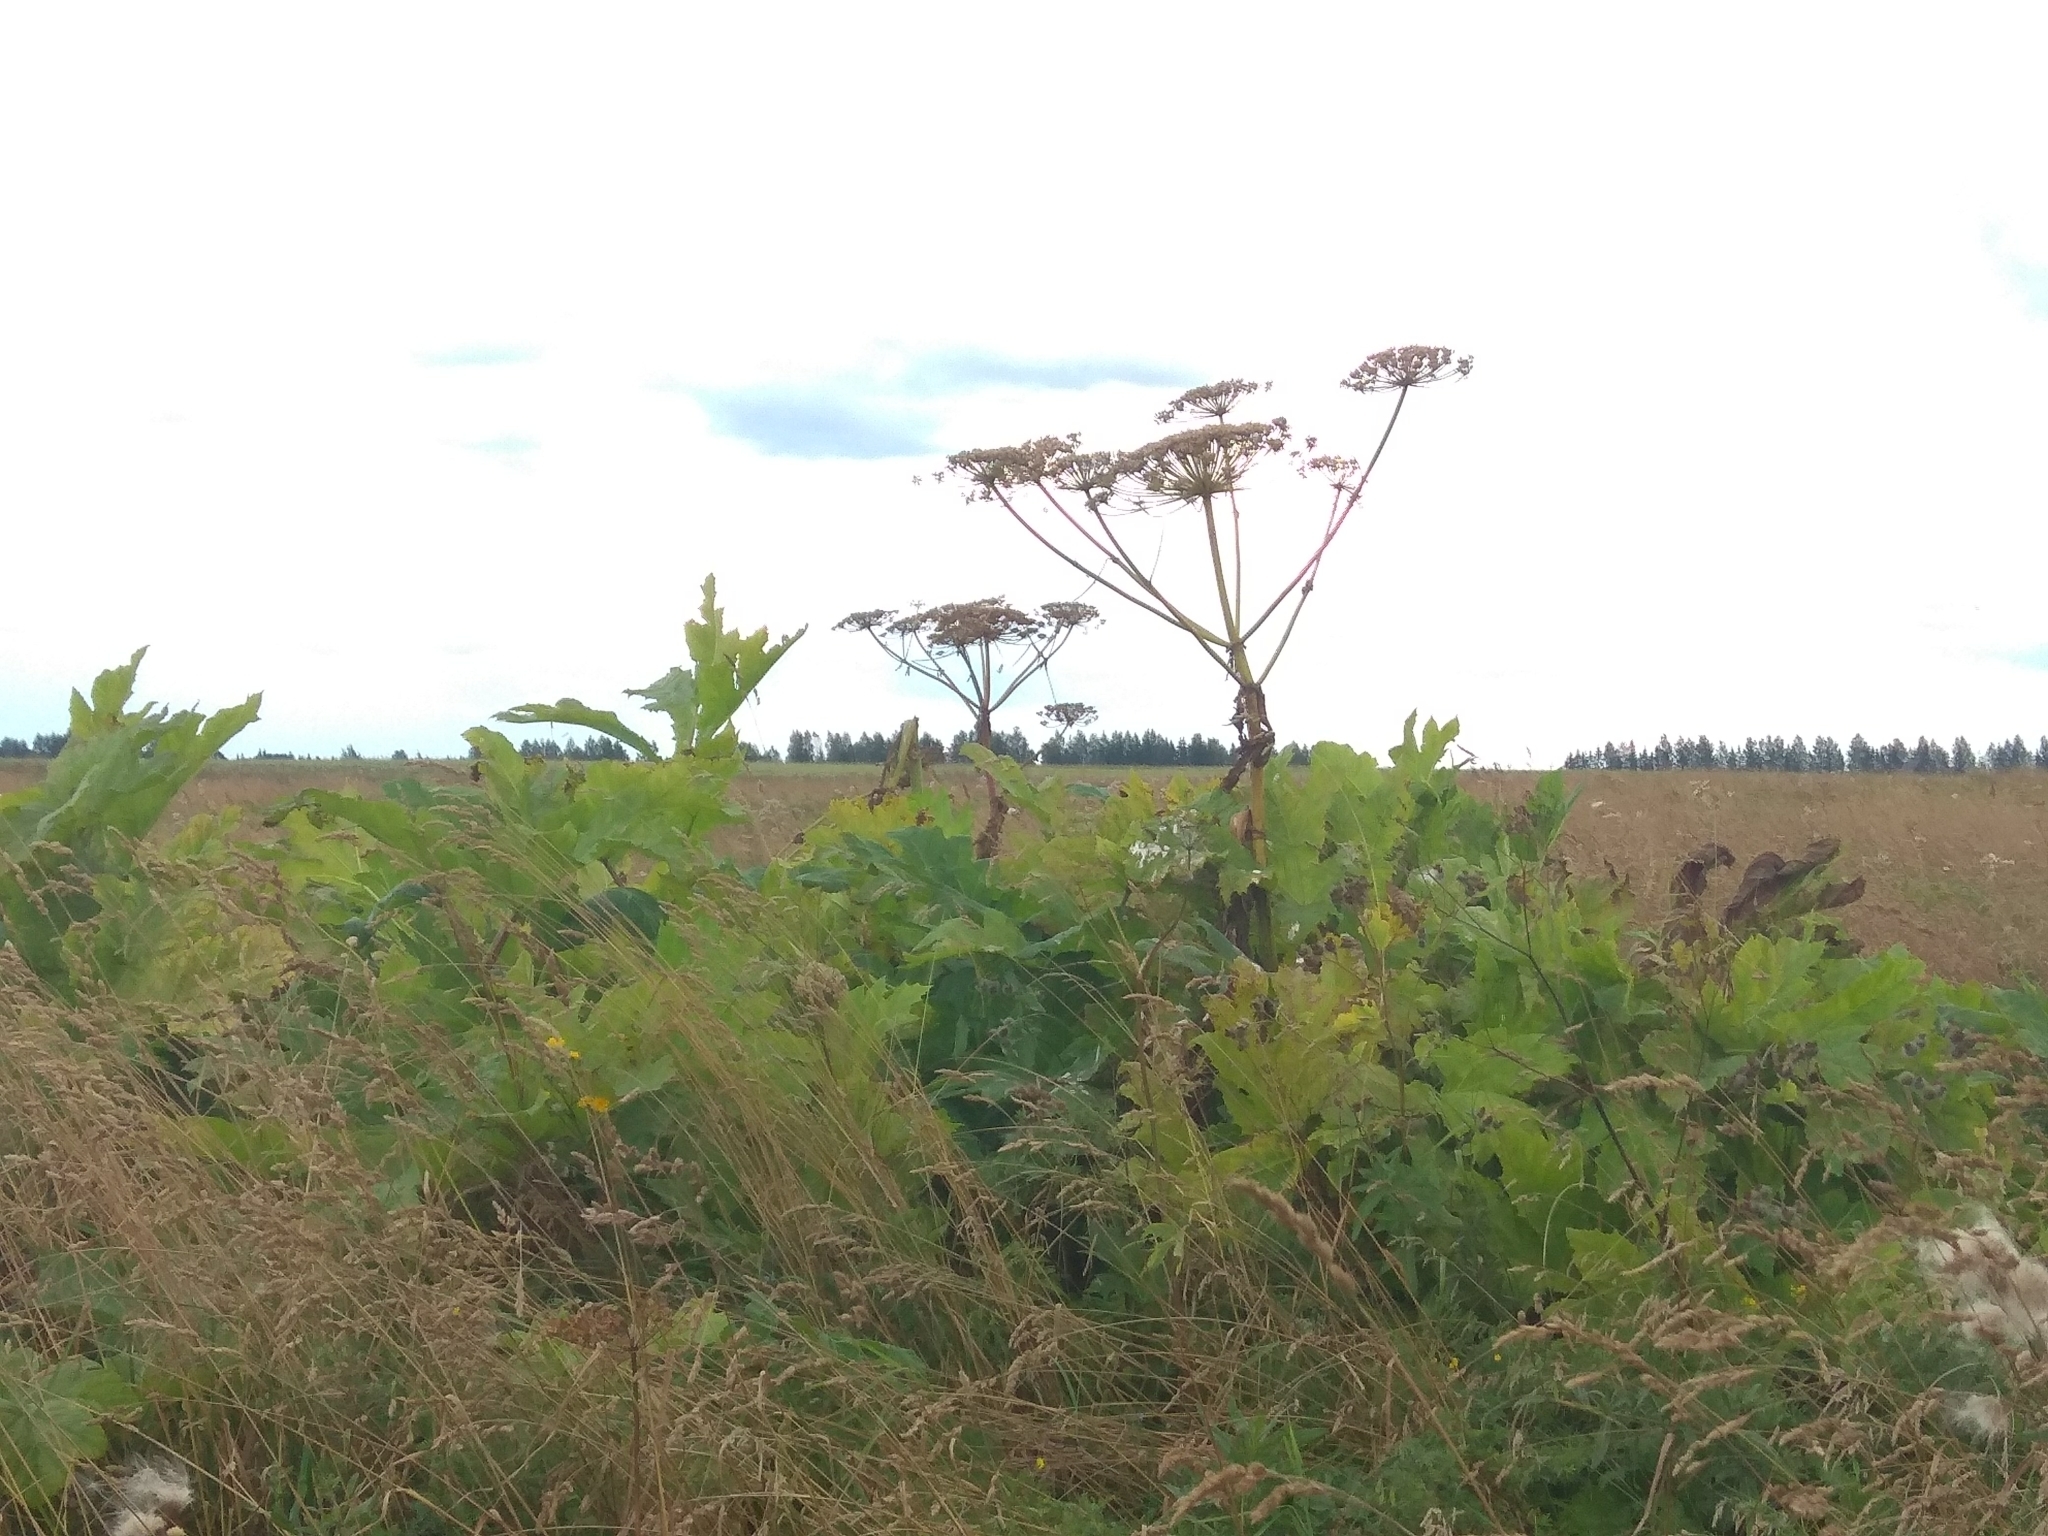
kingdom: Plantae
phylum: Tracheophyta
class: Magnoliopsida
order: Apiales
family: Apiaceae
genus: Heracleum
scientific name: Heracleum sosnowskyi
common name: Sosnowsky's hogweed
